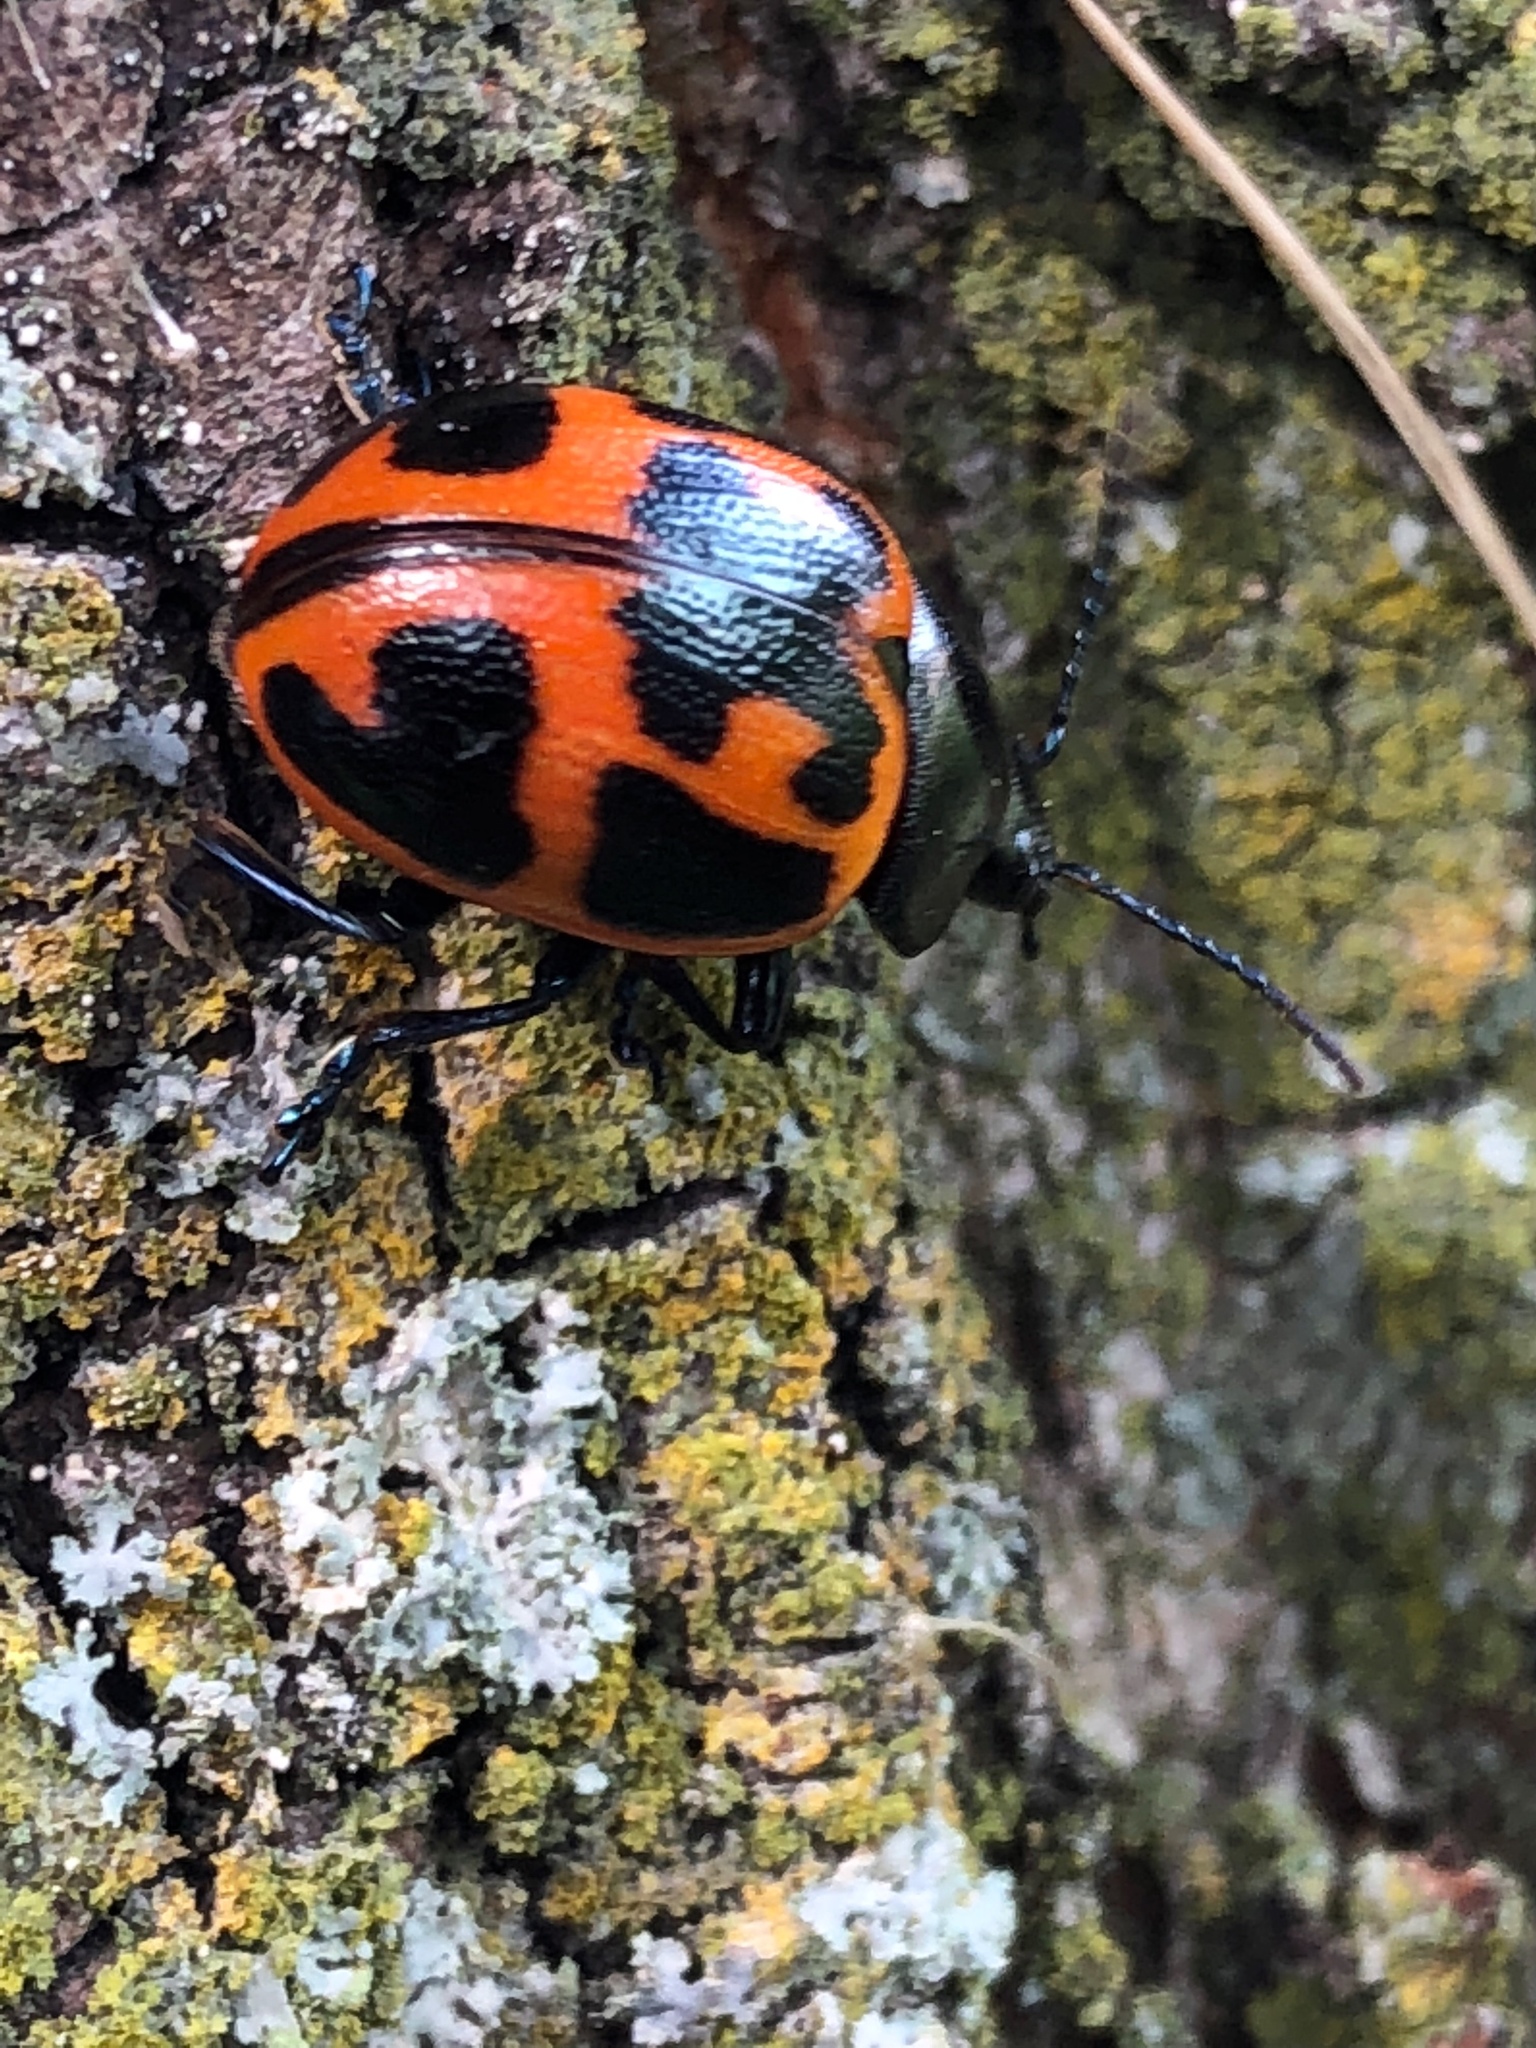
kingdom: Animalia
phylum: Arthropoda
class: Insecta
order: Coleoptera
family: Chrysomelidae
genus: Labidomera
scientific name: Labidomera clivicollis
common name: Swamp milkweed leaf beetle
